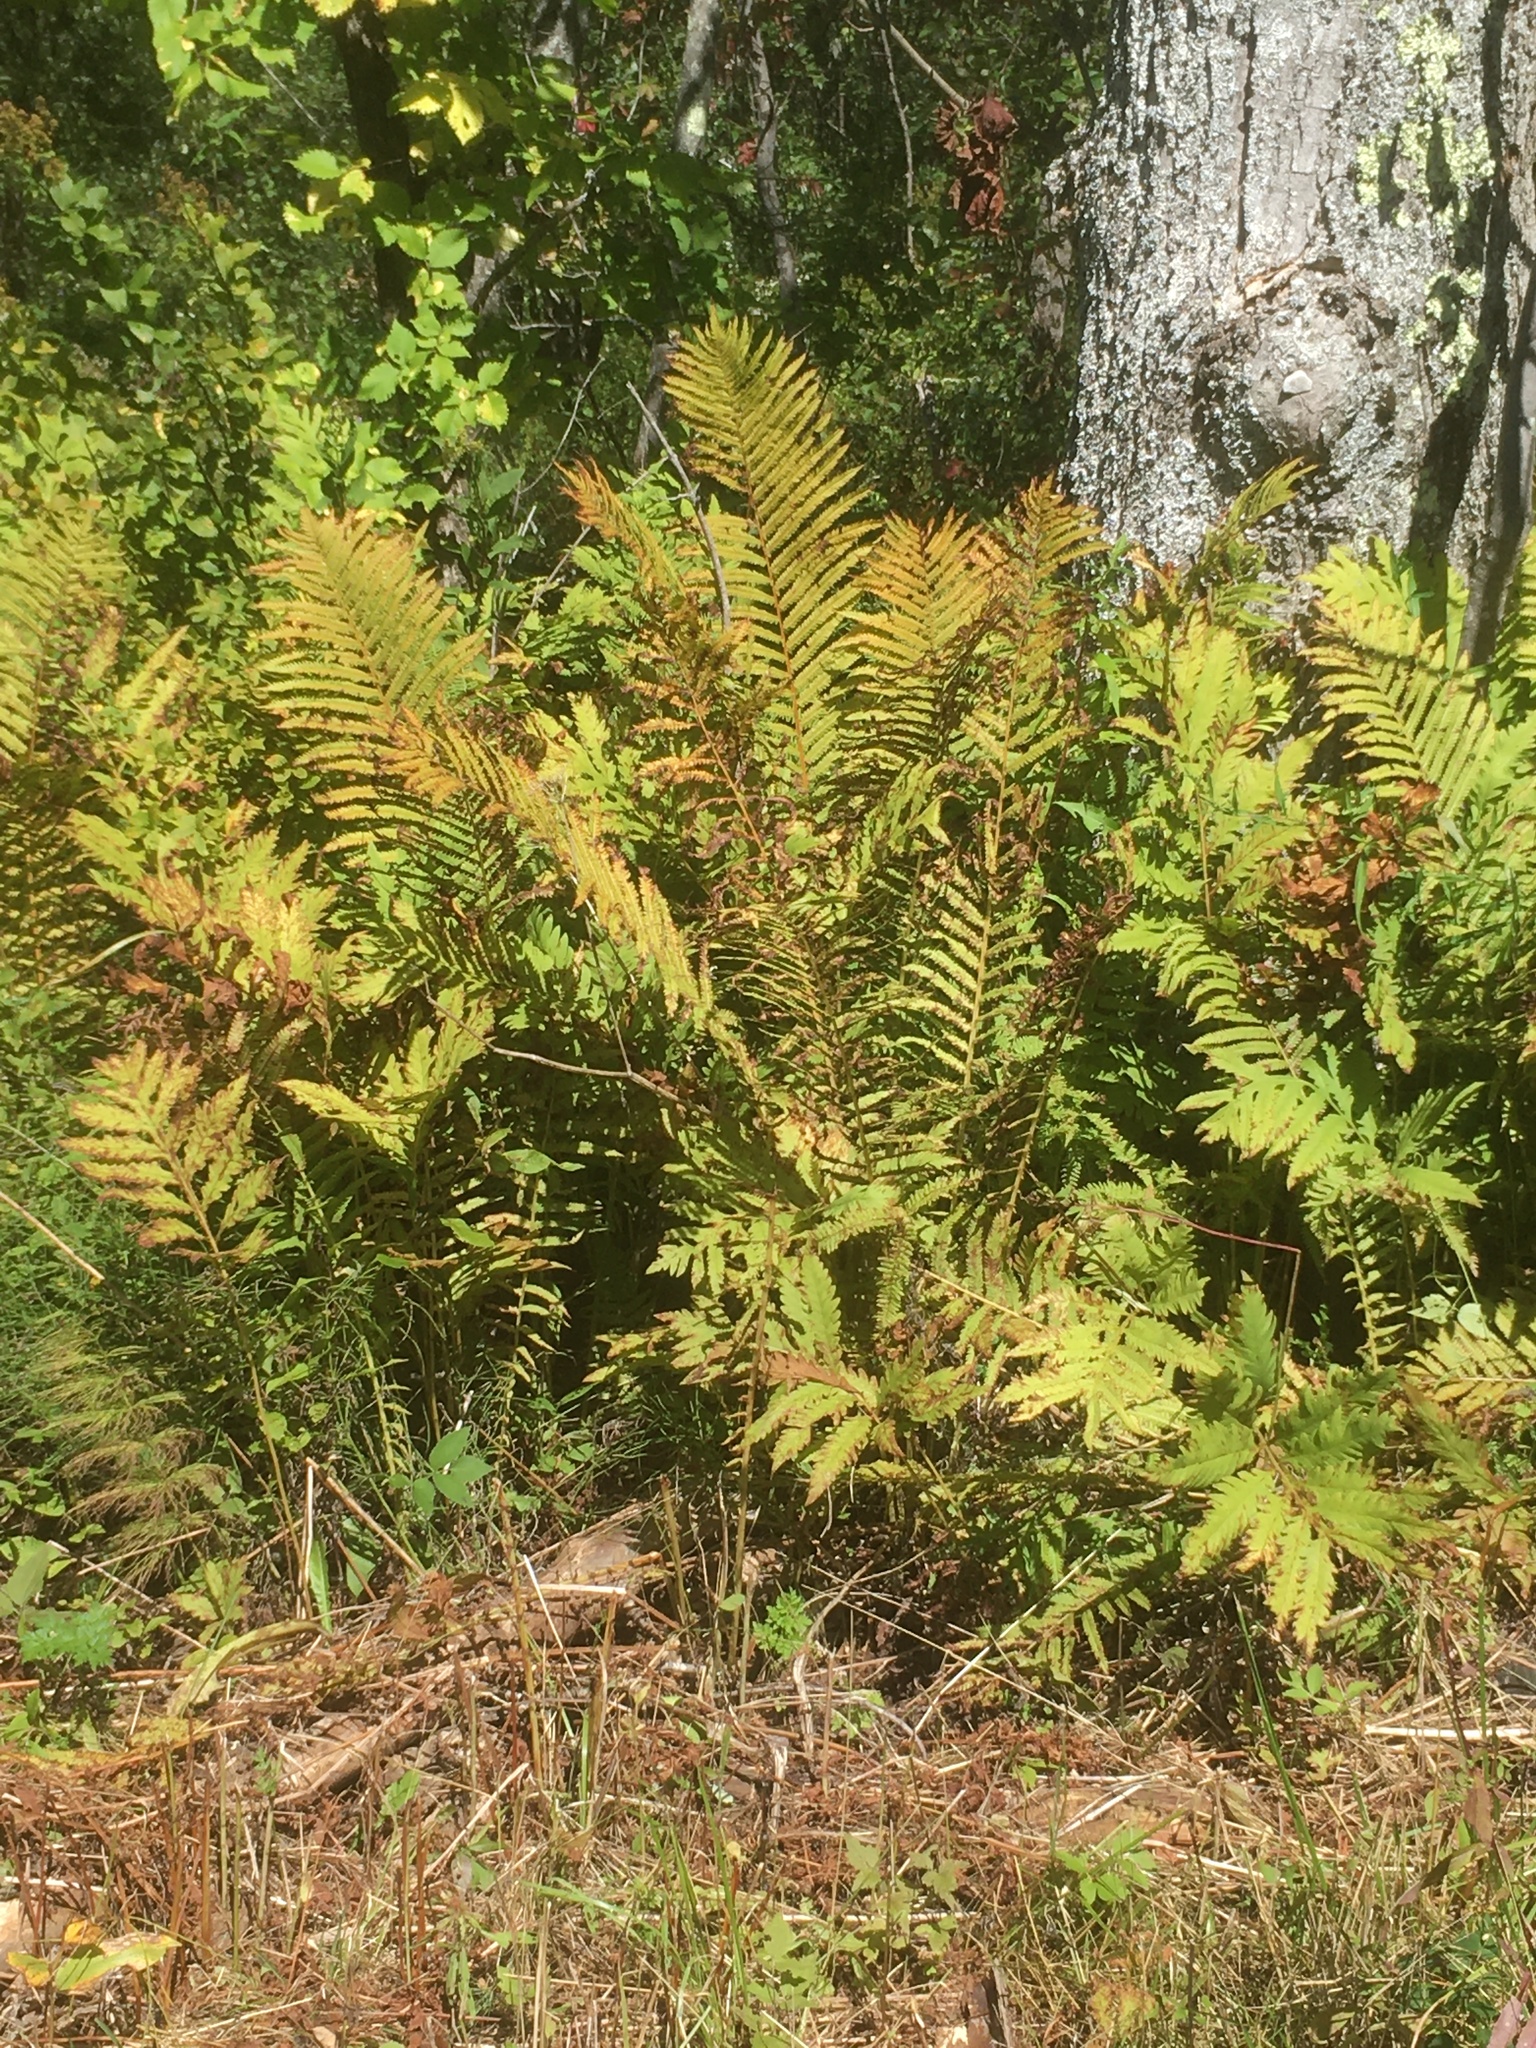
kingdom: Plantae
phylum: Tracheophyta
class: Polypodiopsida
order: Polypodiales
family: Onocleaceae
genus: Matteuccia
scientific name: Matteuccia struthiopteris
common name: Ostrich fern
